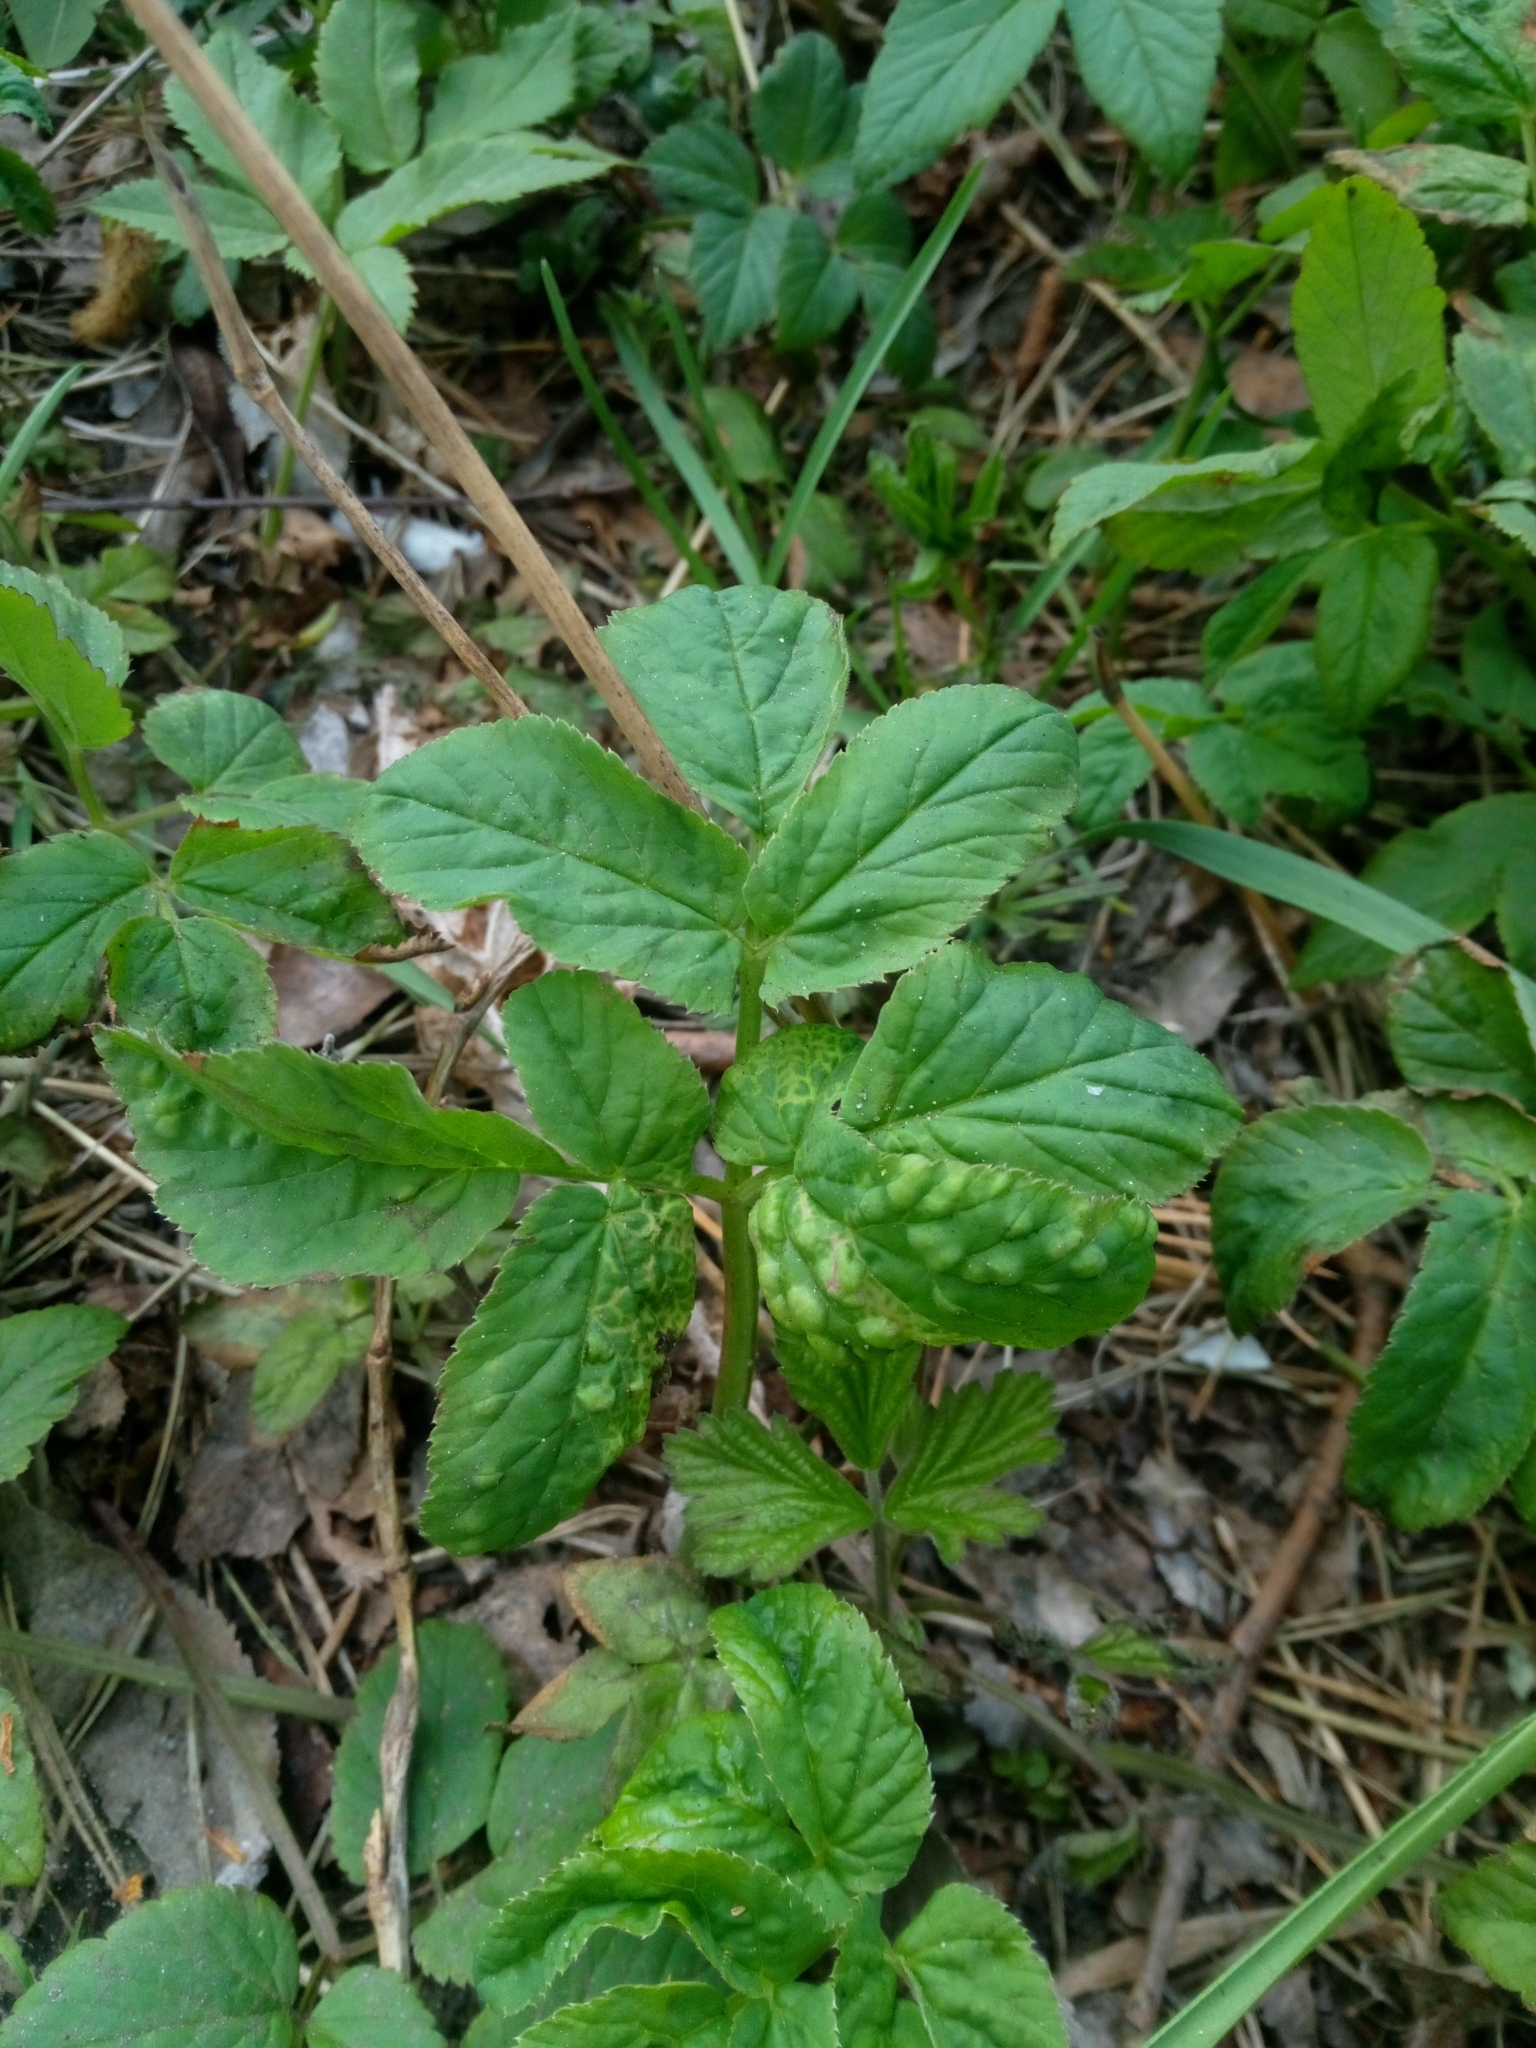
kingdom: Animalia
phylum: Arthropoda
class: Insecta
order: Hemiptera
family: Triozidae
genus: Trioza
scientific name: Trioza flavipennis
